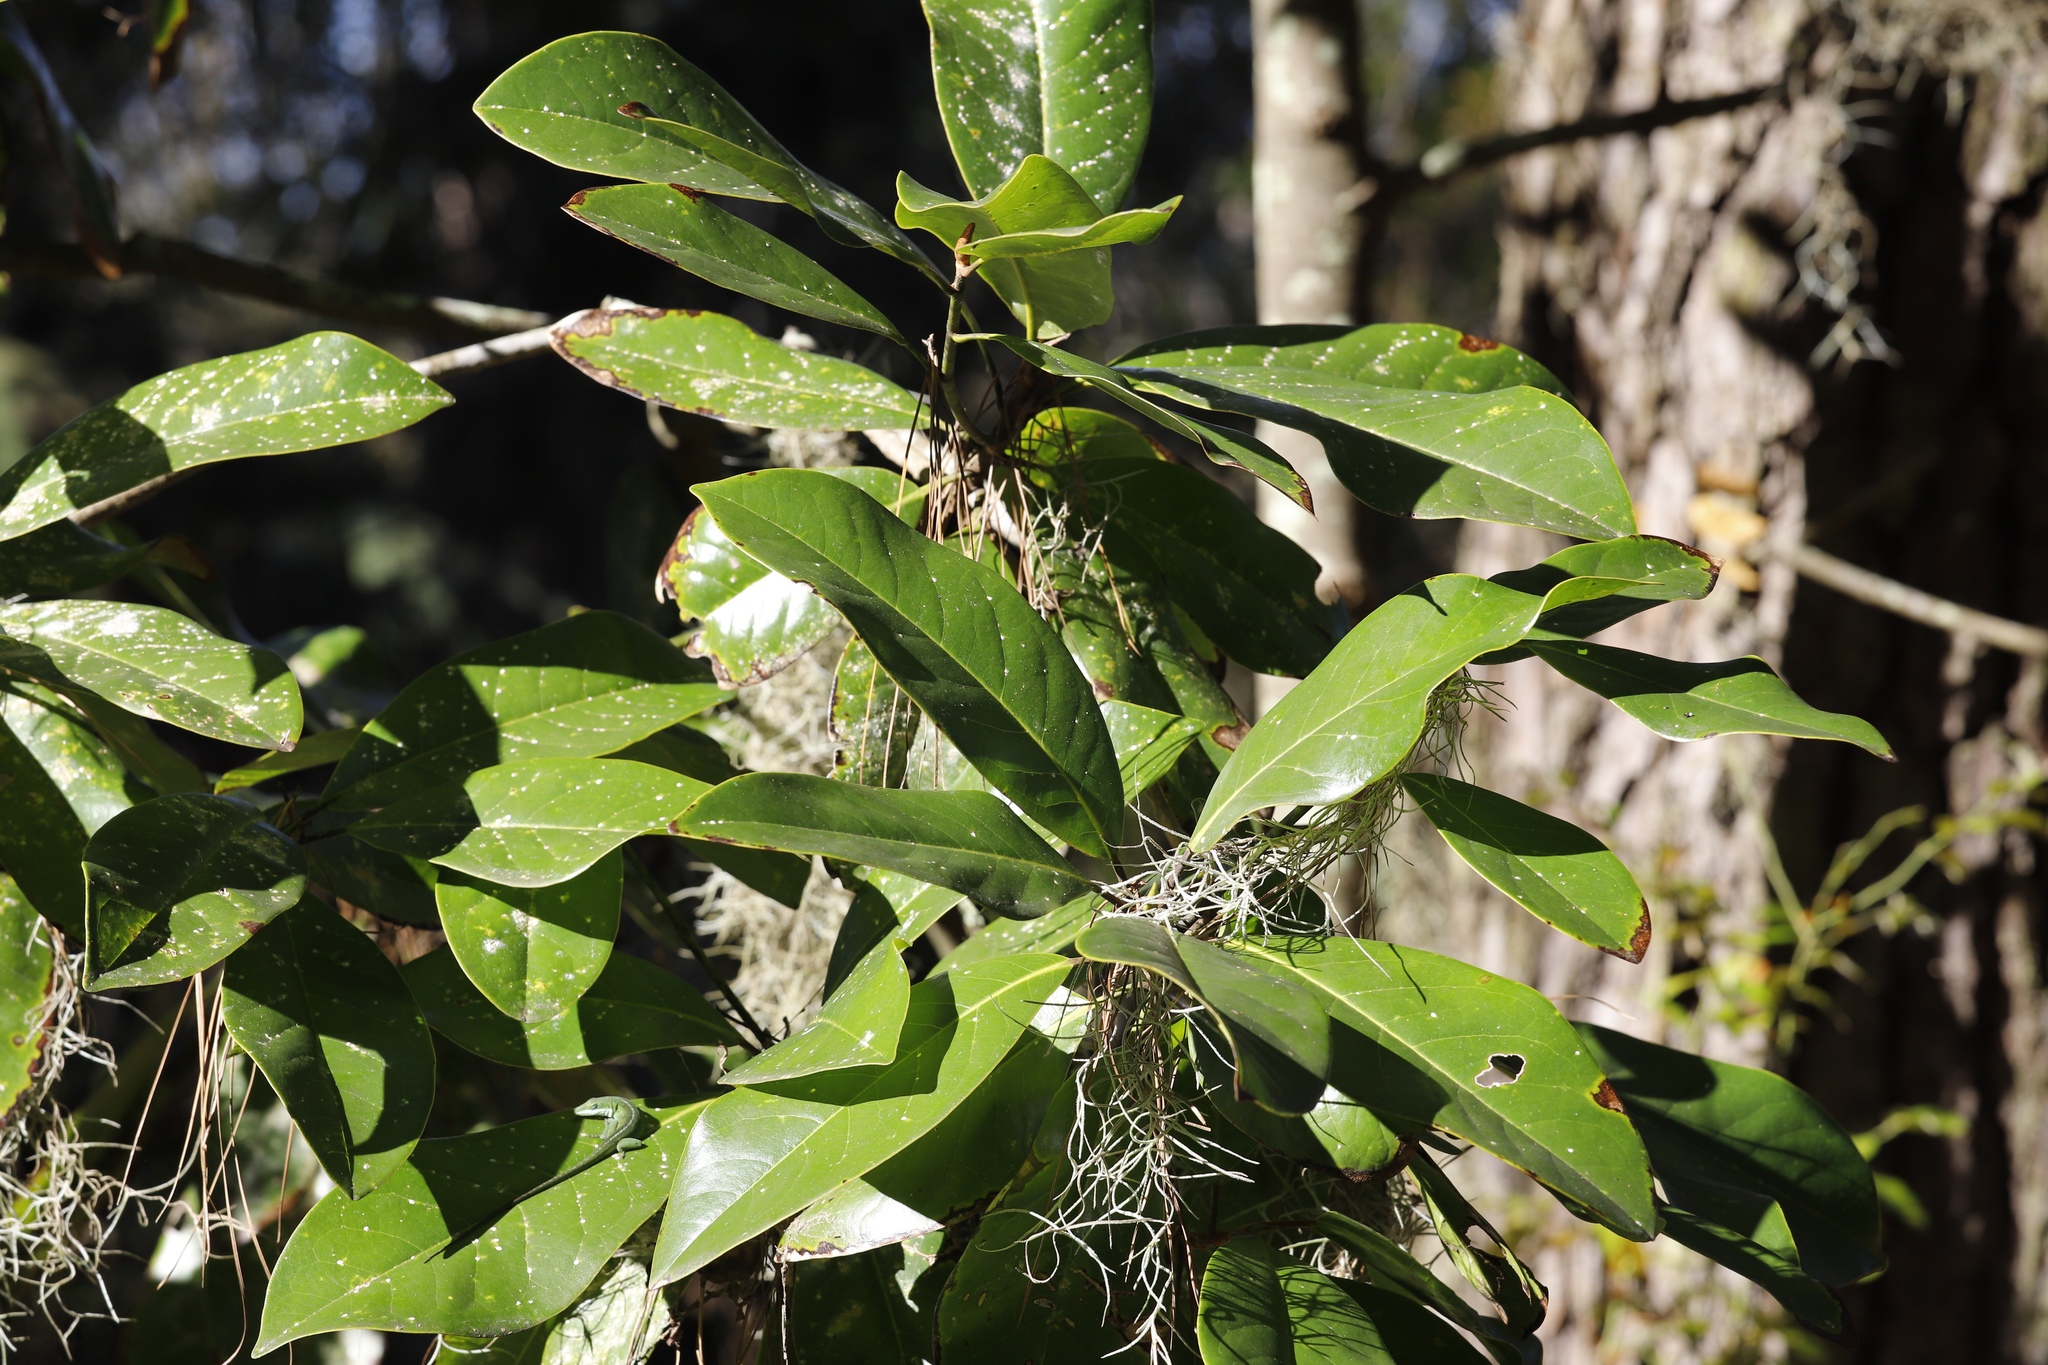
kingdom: Plantae
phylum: Tracheophyta
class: Magnoliopsida
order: Magnoliales
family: Magnoliaceae
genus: Magnolia
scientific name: Magnolia grandiflora
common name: Southern magnolia
